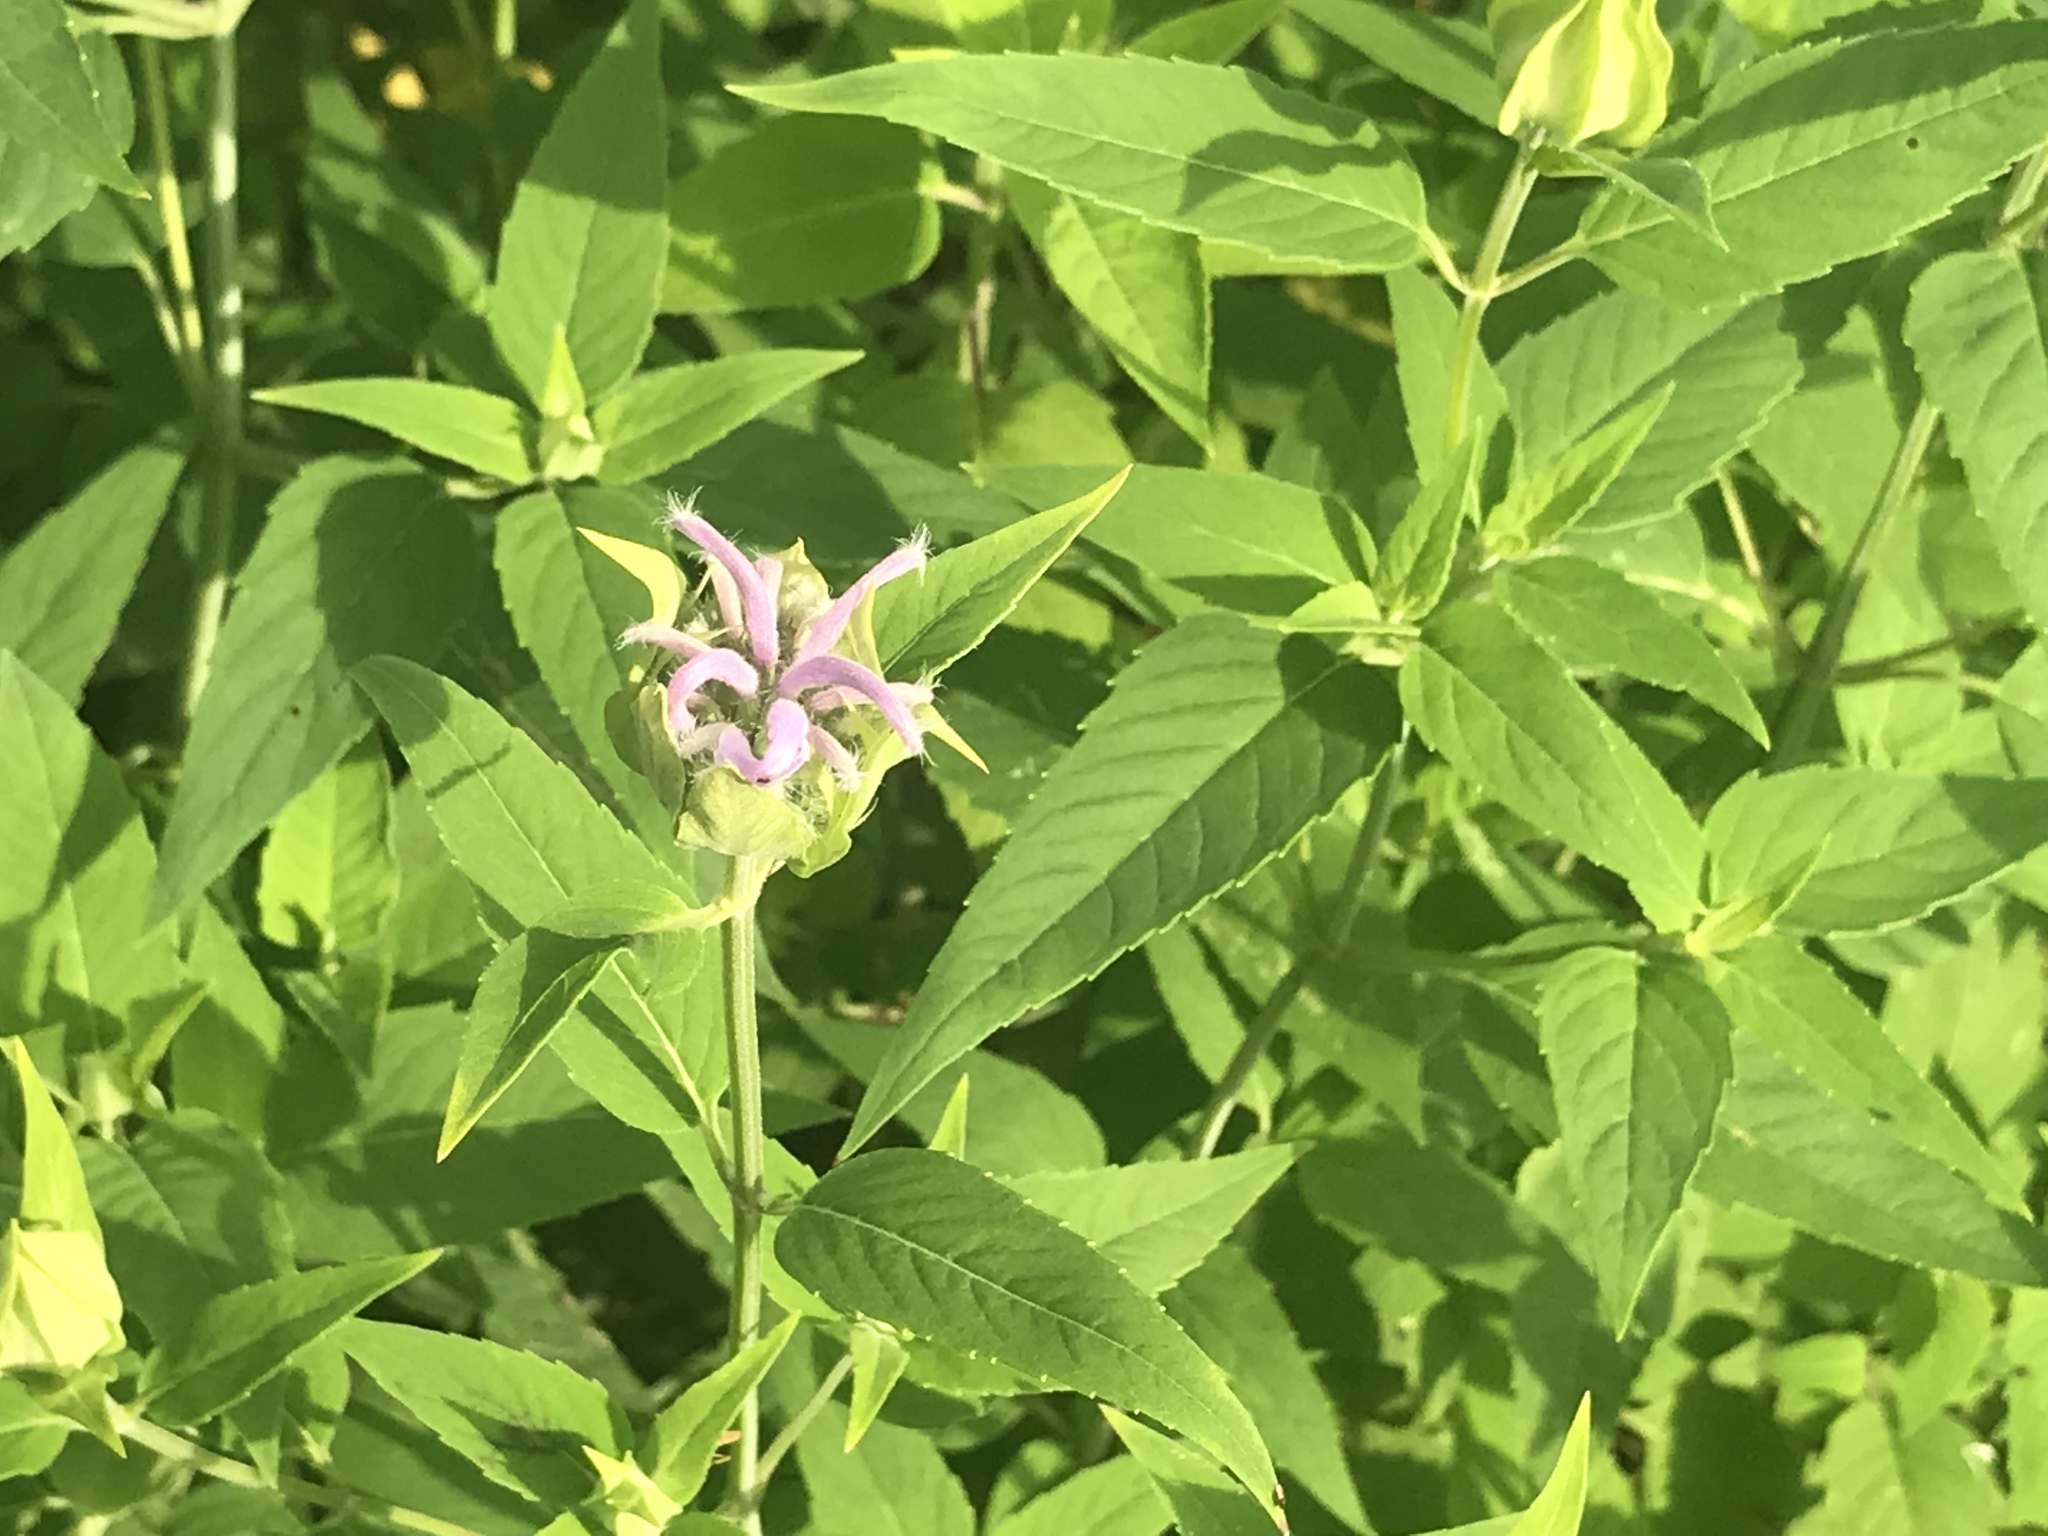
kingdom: Plantae
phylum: Tracheophyta
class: Magnoliopsida
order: Lamiales
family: Lamiaceae
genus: Monarda
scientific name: Monarda fistulosa
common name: Purple beebalm
